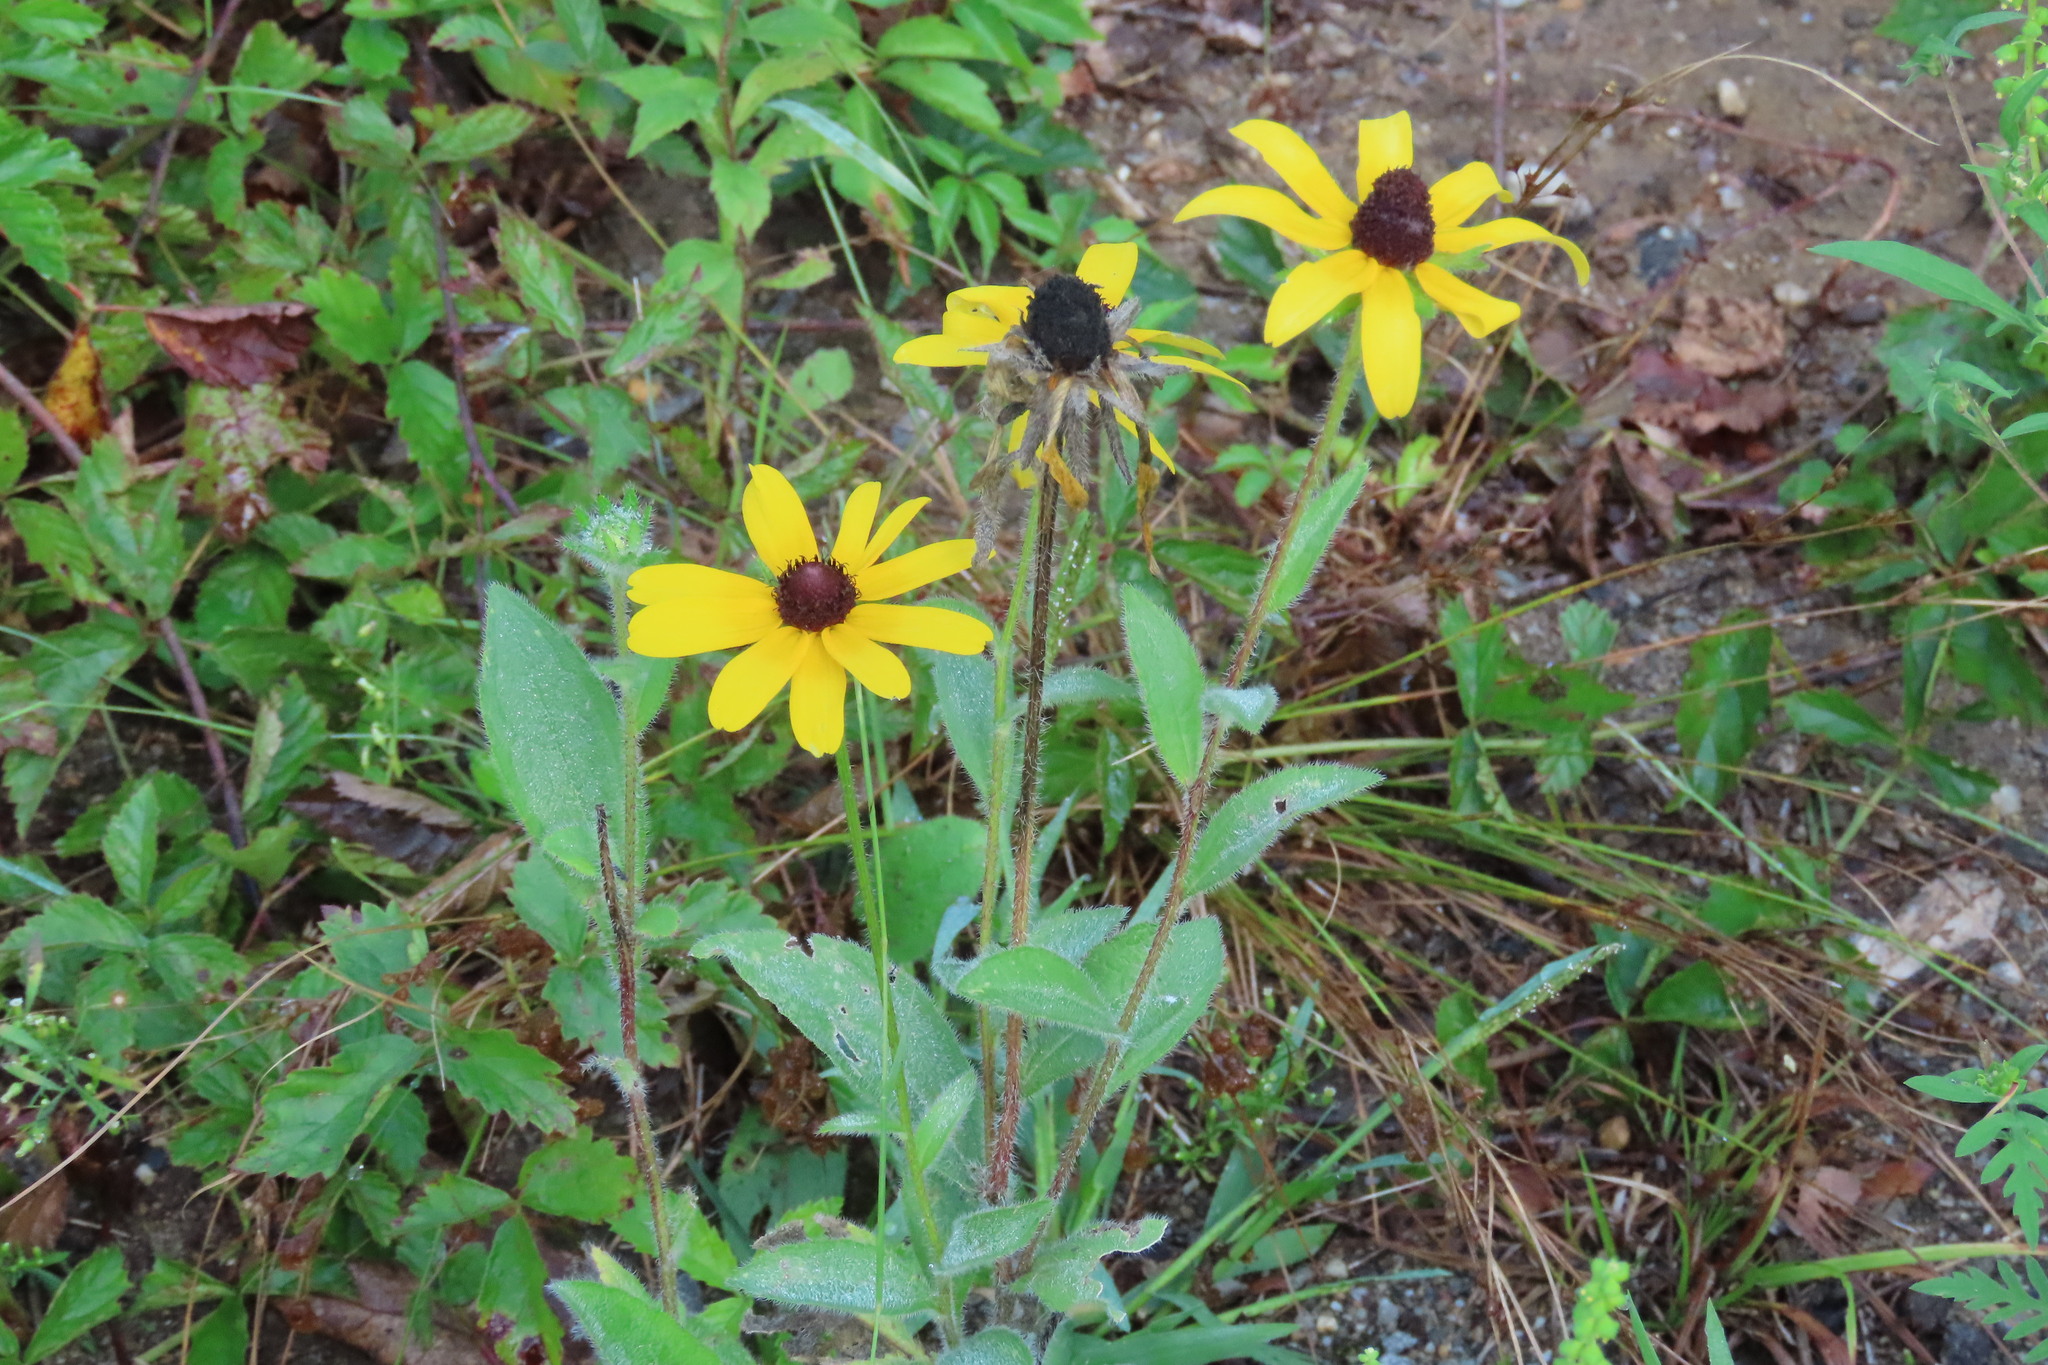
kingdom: Plantae
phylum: Tracheophyta
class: Magnoliopsida
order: Asterales
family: Asteraceae
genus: Rudbeckia
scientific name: Rudbeckia hirta
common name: Black-eyed-susan
